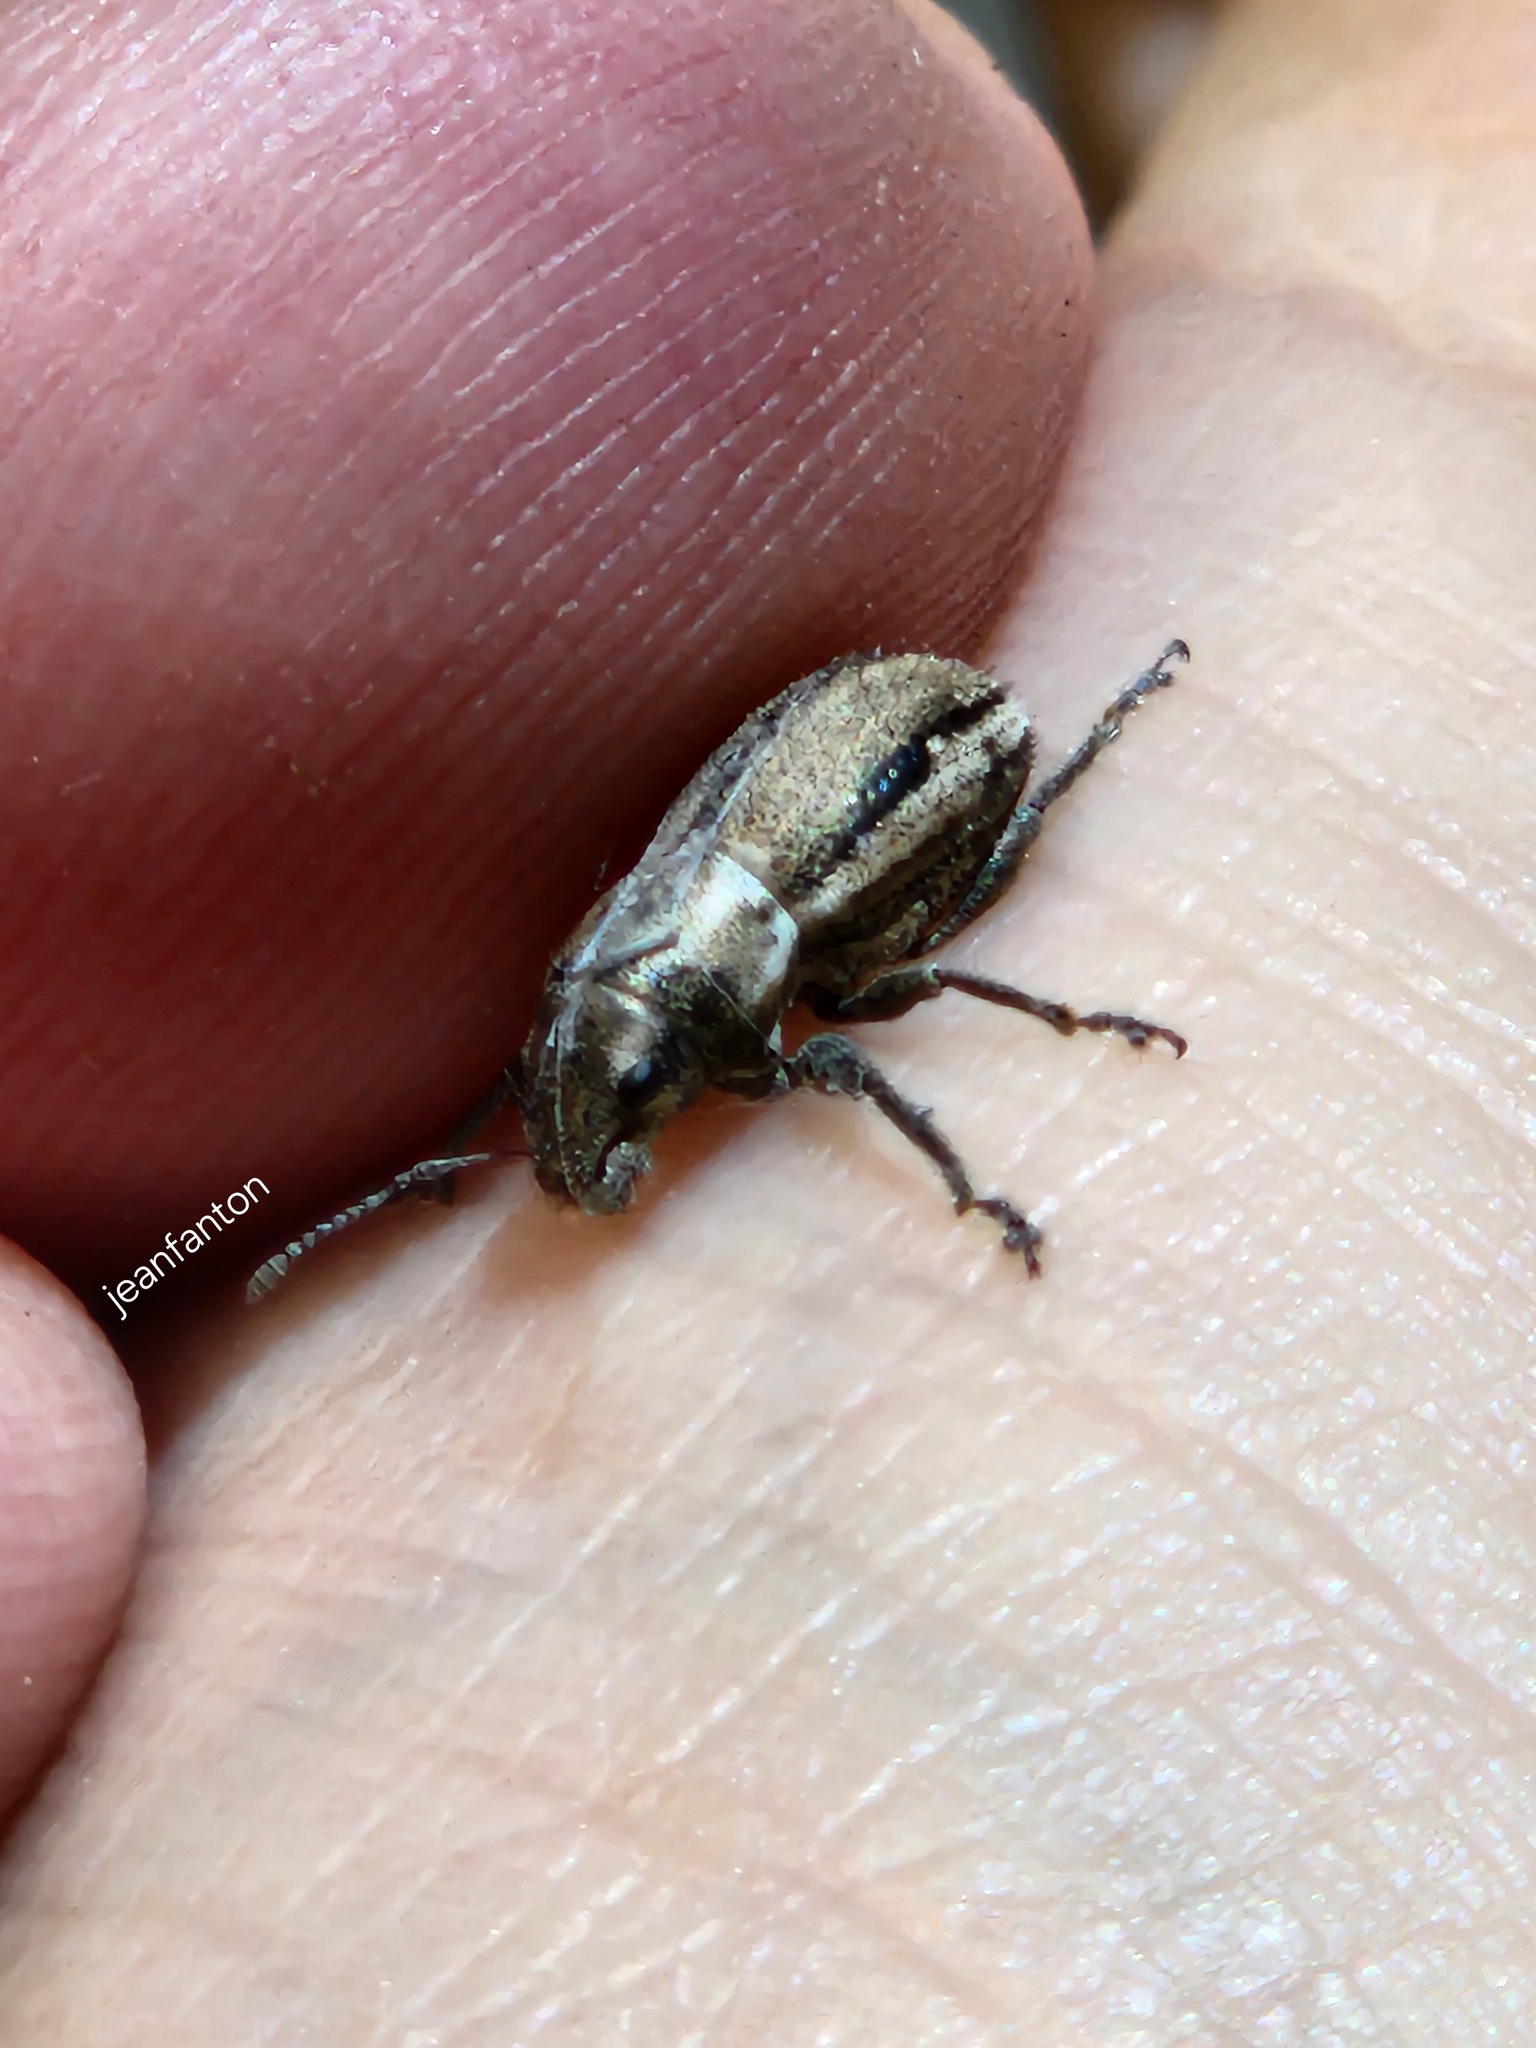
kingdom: Animalia
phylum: Arthropoda
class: Insecta
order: Coleoptera
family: Curculionidae
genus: Naupactus
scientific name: Naupactus peregrinus
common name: Whitefringed beetle
